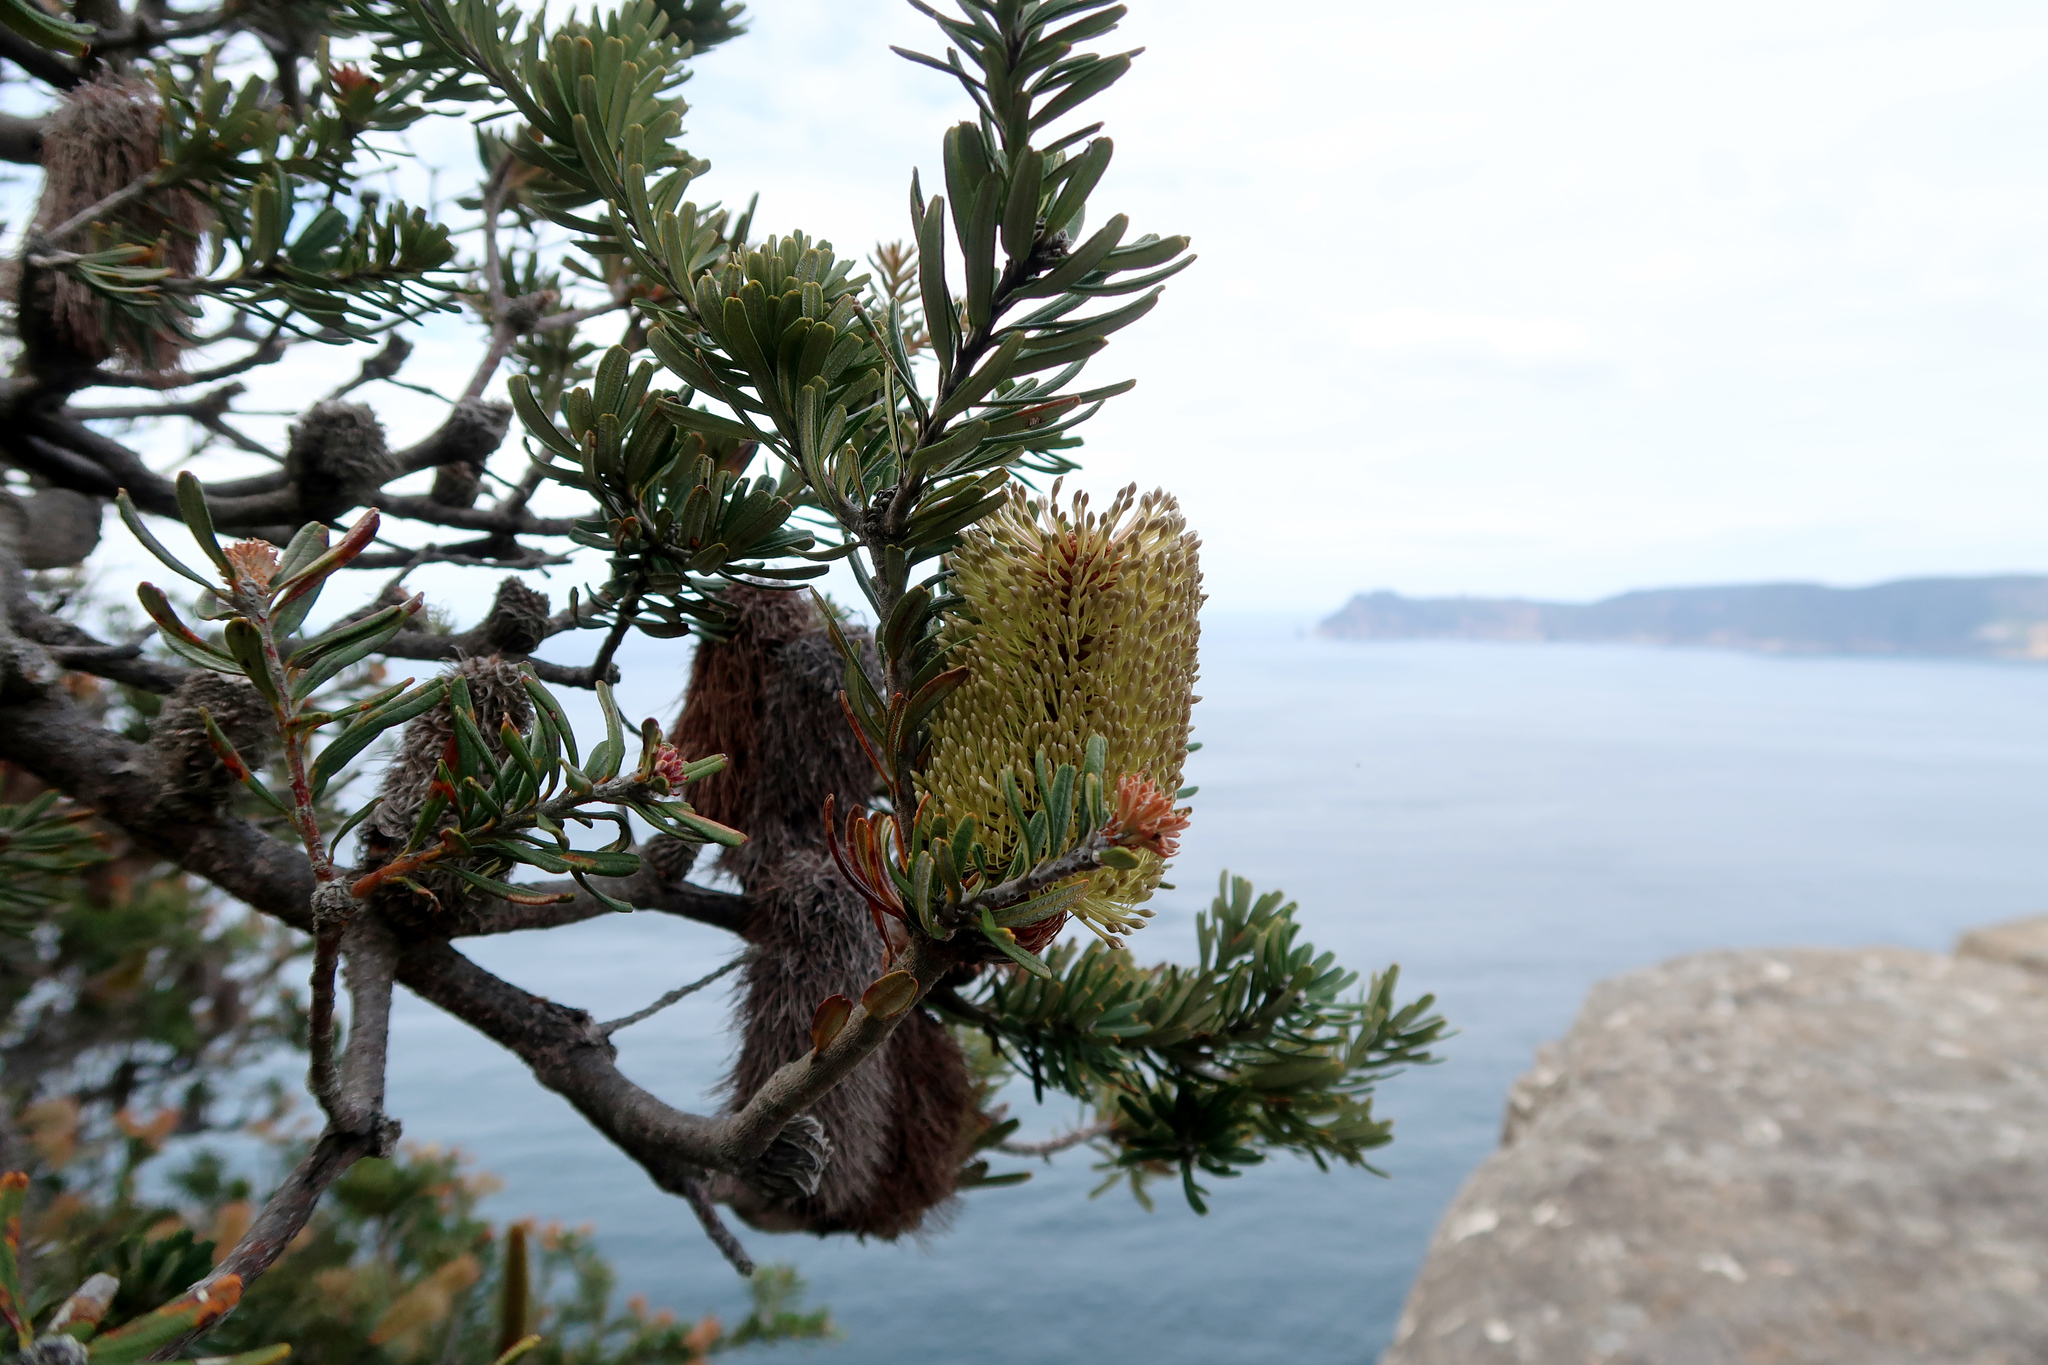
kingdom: Plantae
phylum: Tracheophyta
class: Magnoliopsida
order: Proteales
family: Proteaceae
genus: Banksia
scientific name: Banksia marginata
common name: Silver banksia
